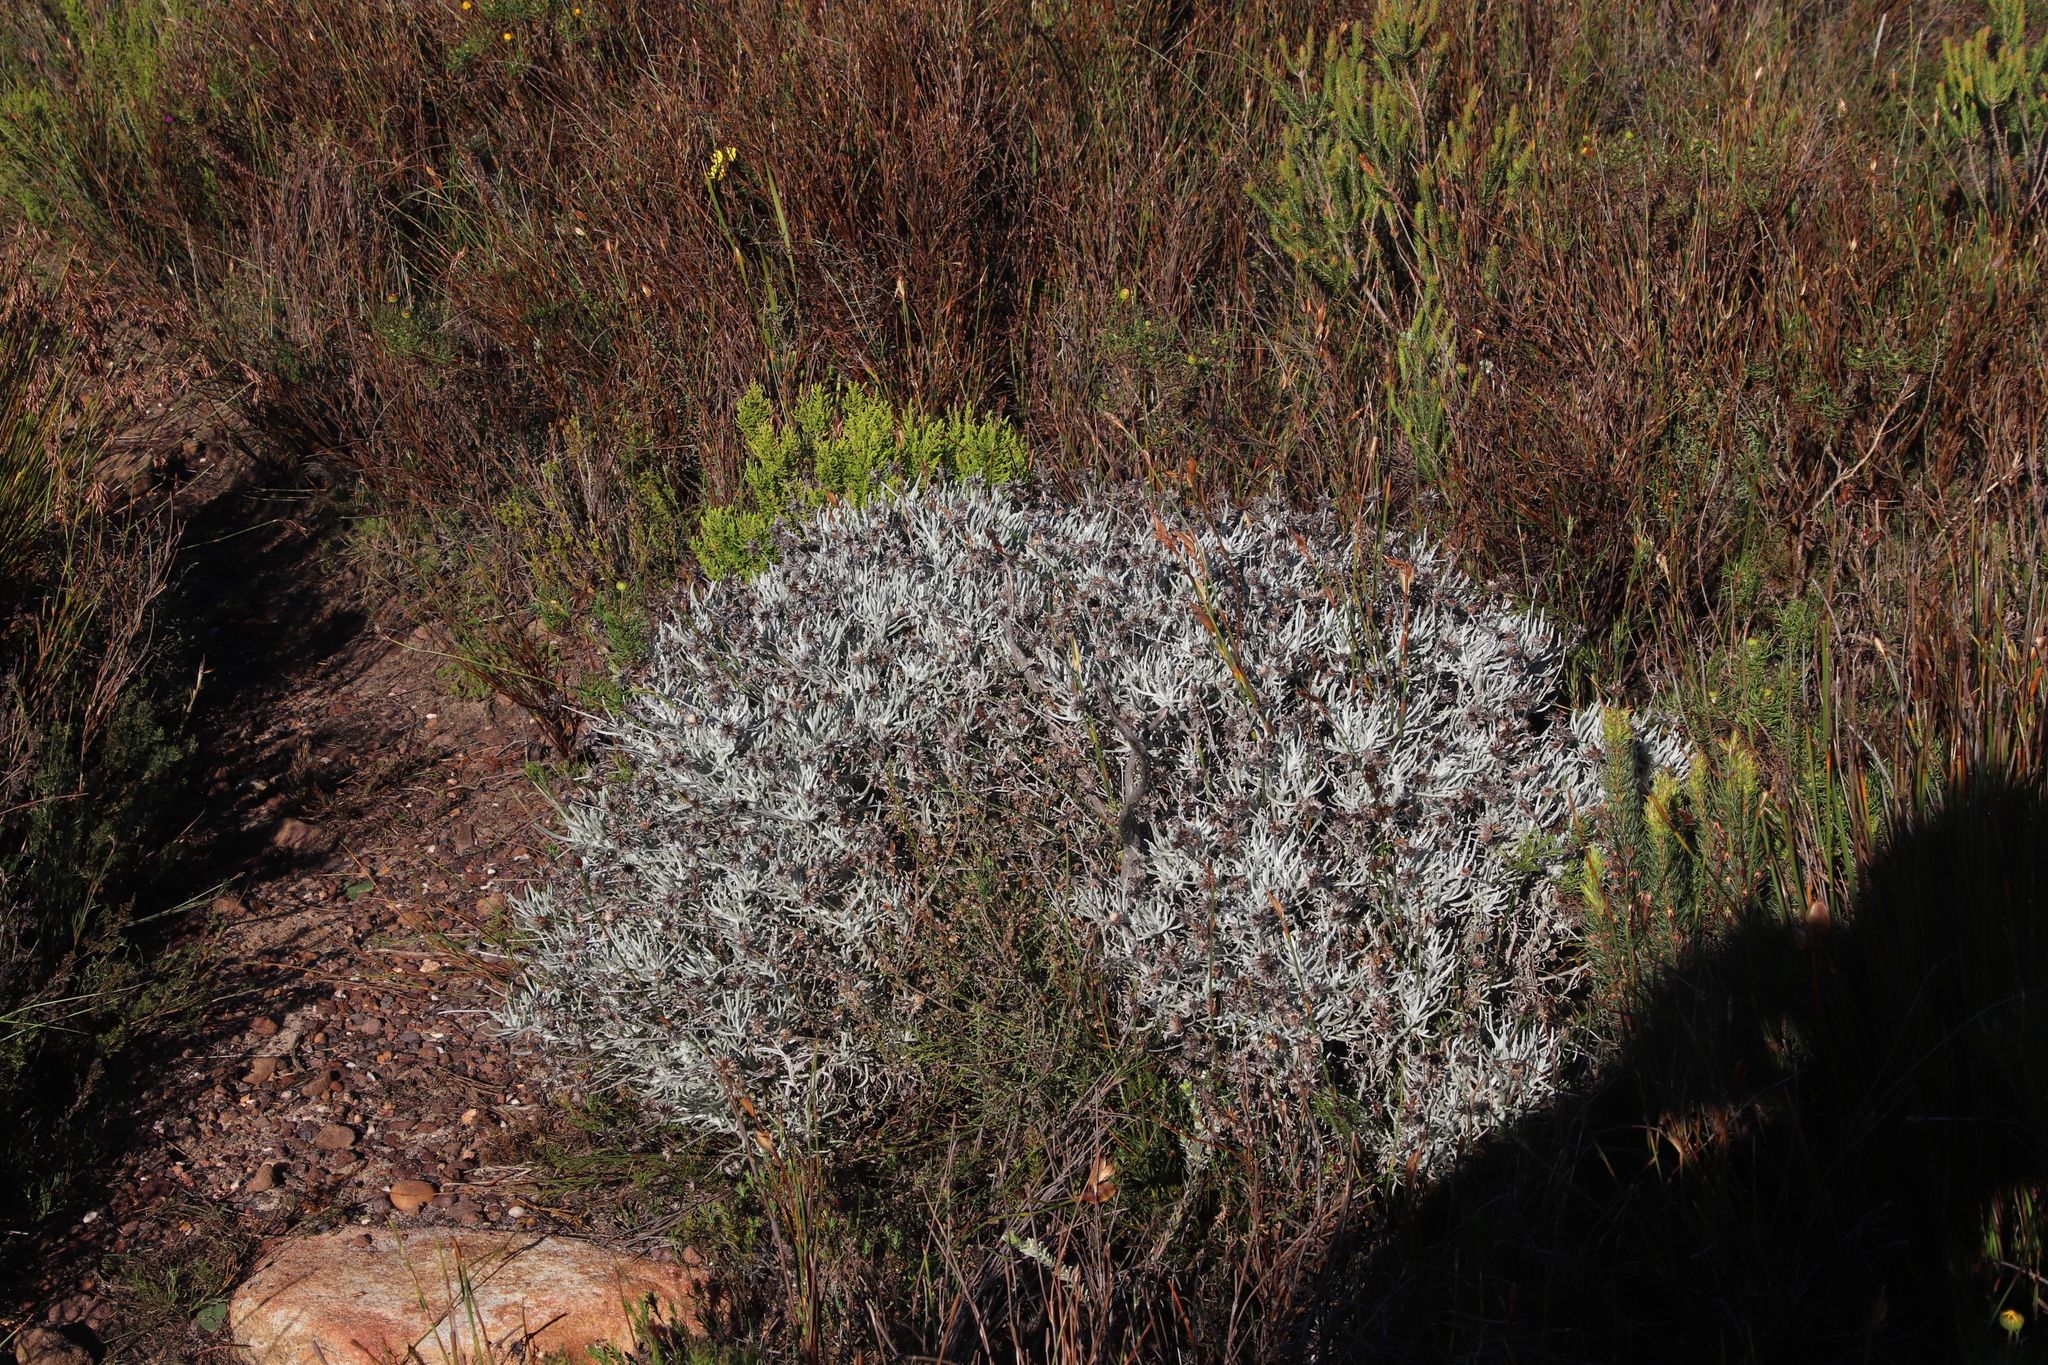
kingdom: Plantae
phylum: Tracheophyta
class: Magnoliopsida
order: Asterales
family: Asteraceae
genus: Syncarpha
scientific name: Syncarpha gnaphaloides
